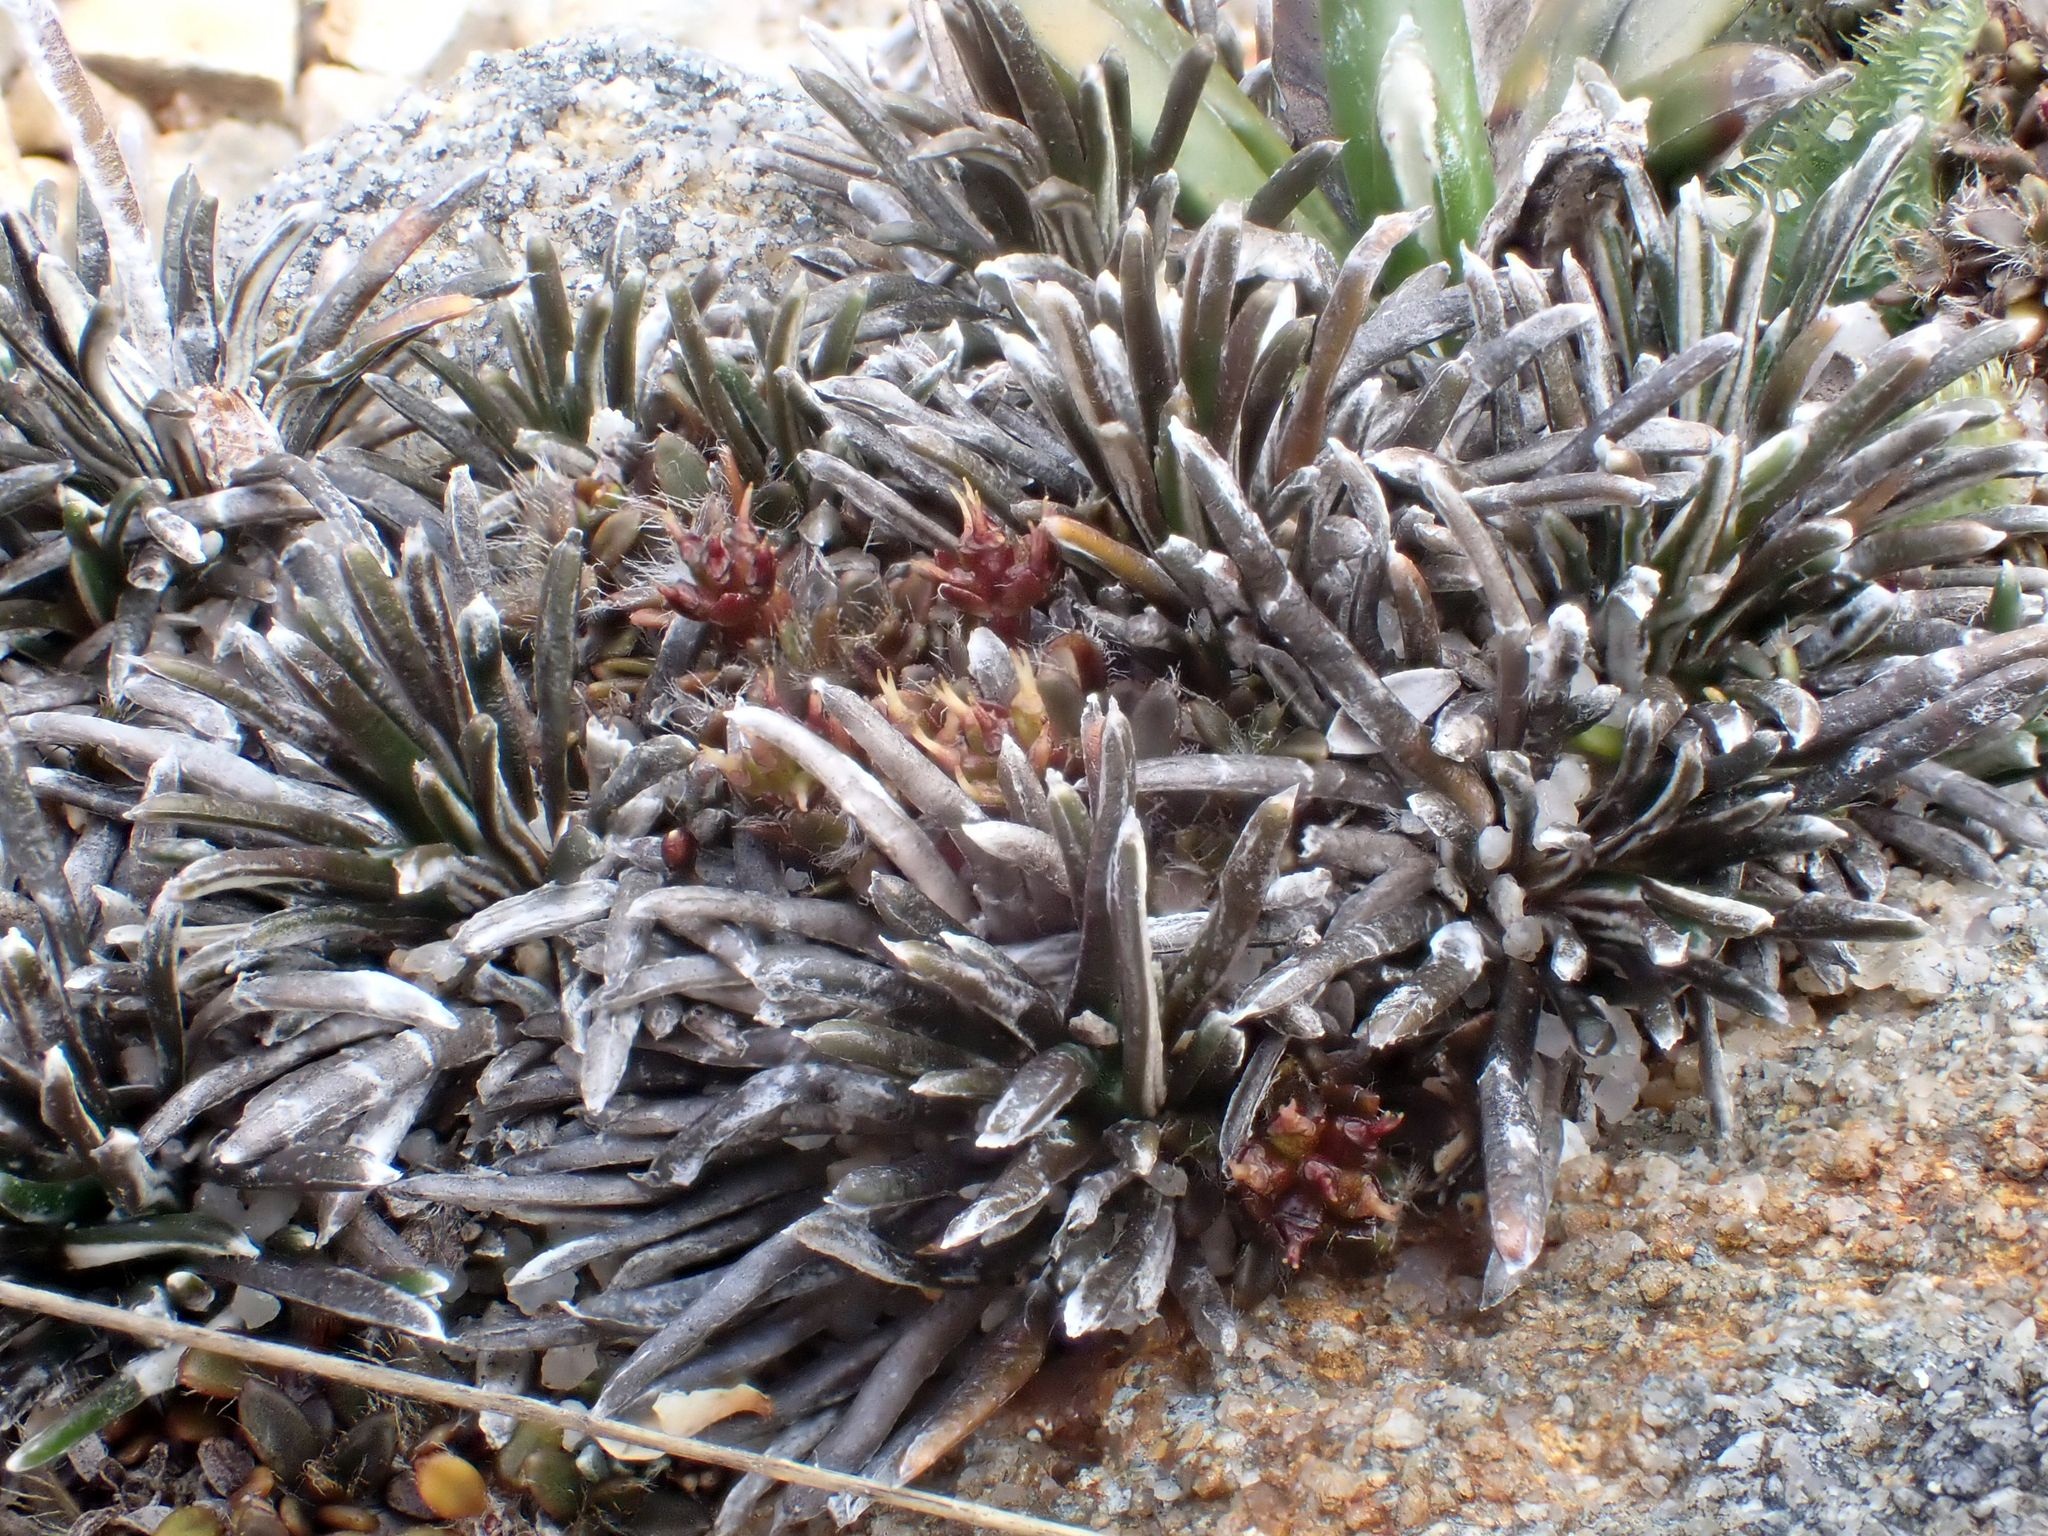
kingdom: Plantae
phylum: Tracheophyta
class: Magnoliopsida
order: Asterales
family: Asteraceae
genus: Celmisia
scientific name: Celmisia similis
